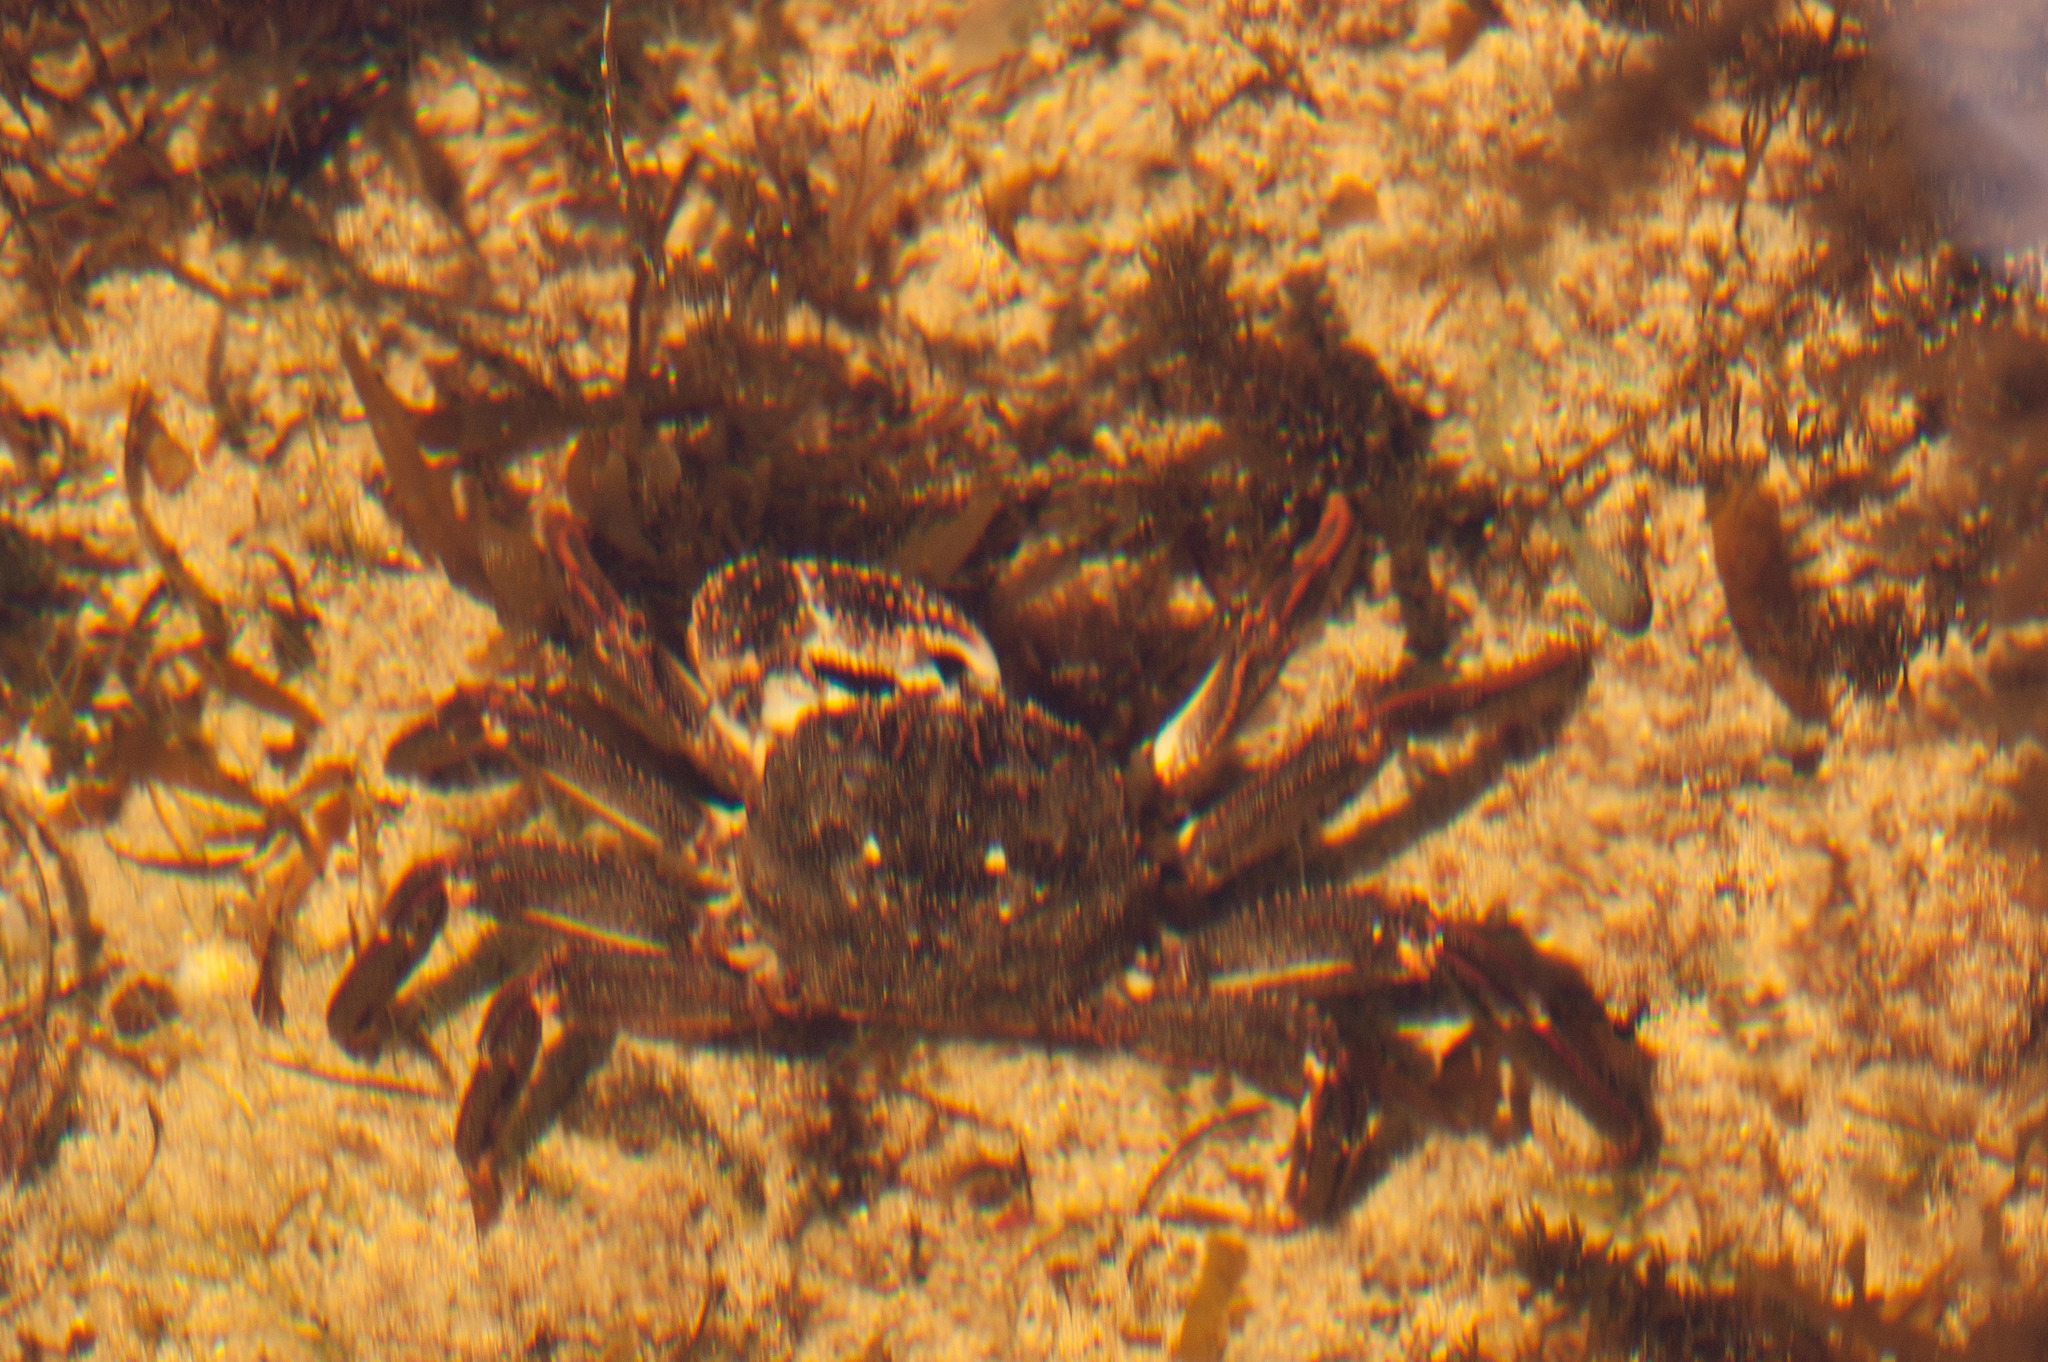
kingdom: Animalia
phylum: Arthropoda
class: Malacostraca
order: Decapoda
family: Plagusiidae
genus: Guinusia
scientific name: Guinusia chabrus
